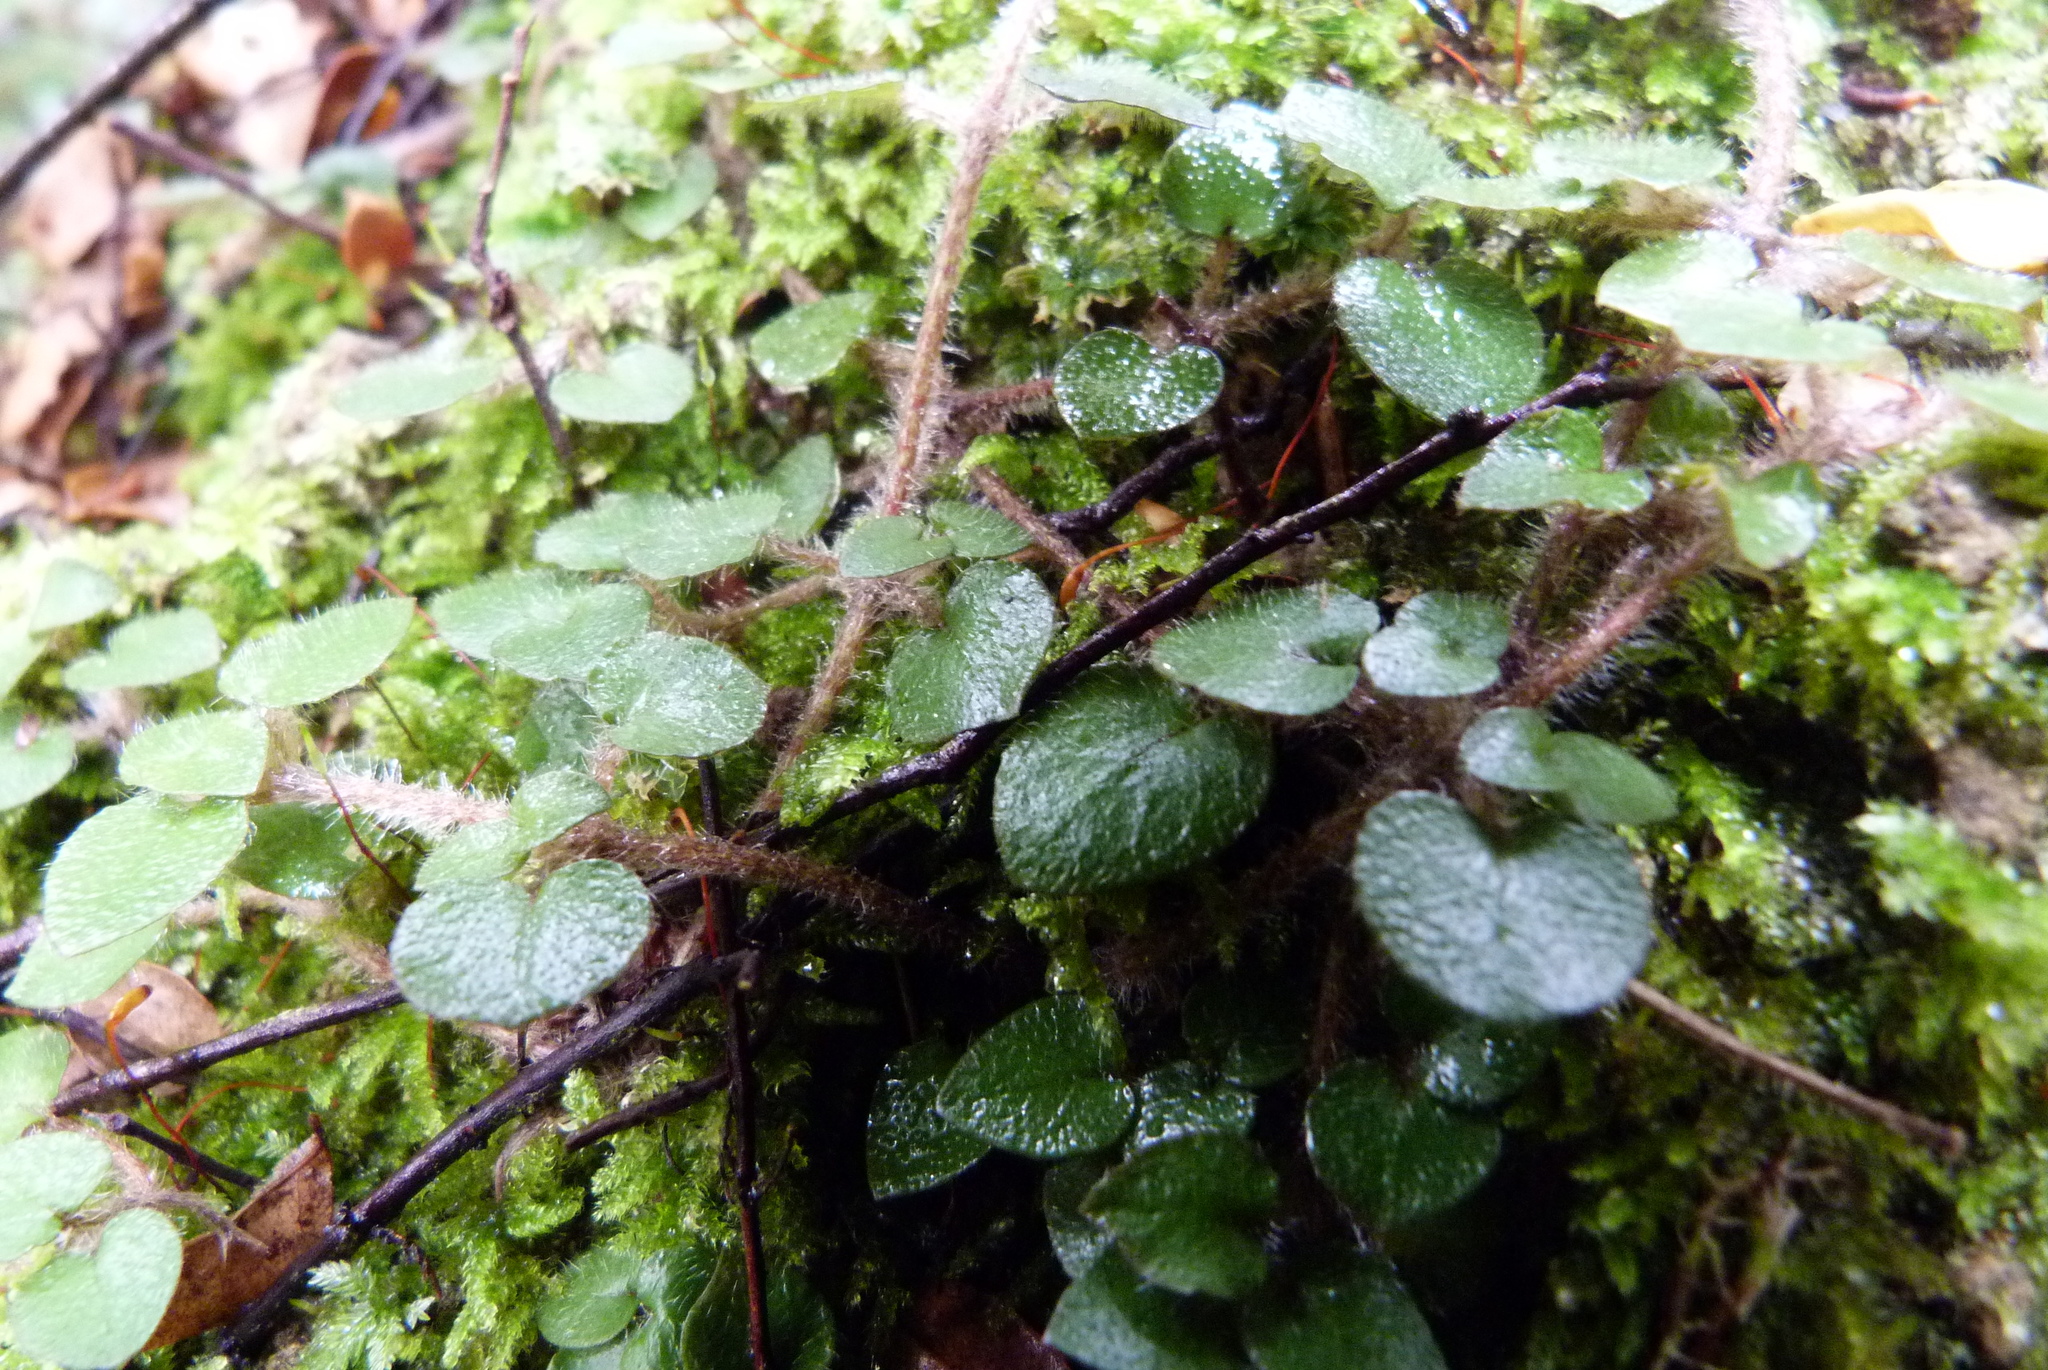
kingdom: Plantae
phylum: Tracheophyta
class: Magnoliopsida
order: Gentianales
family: Rubiaceae
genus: Nertera
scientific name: Nertera villosa
